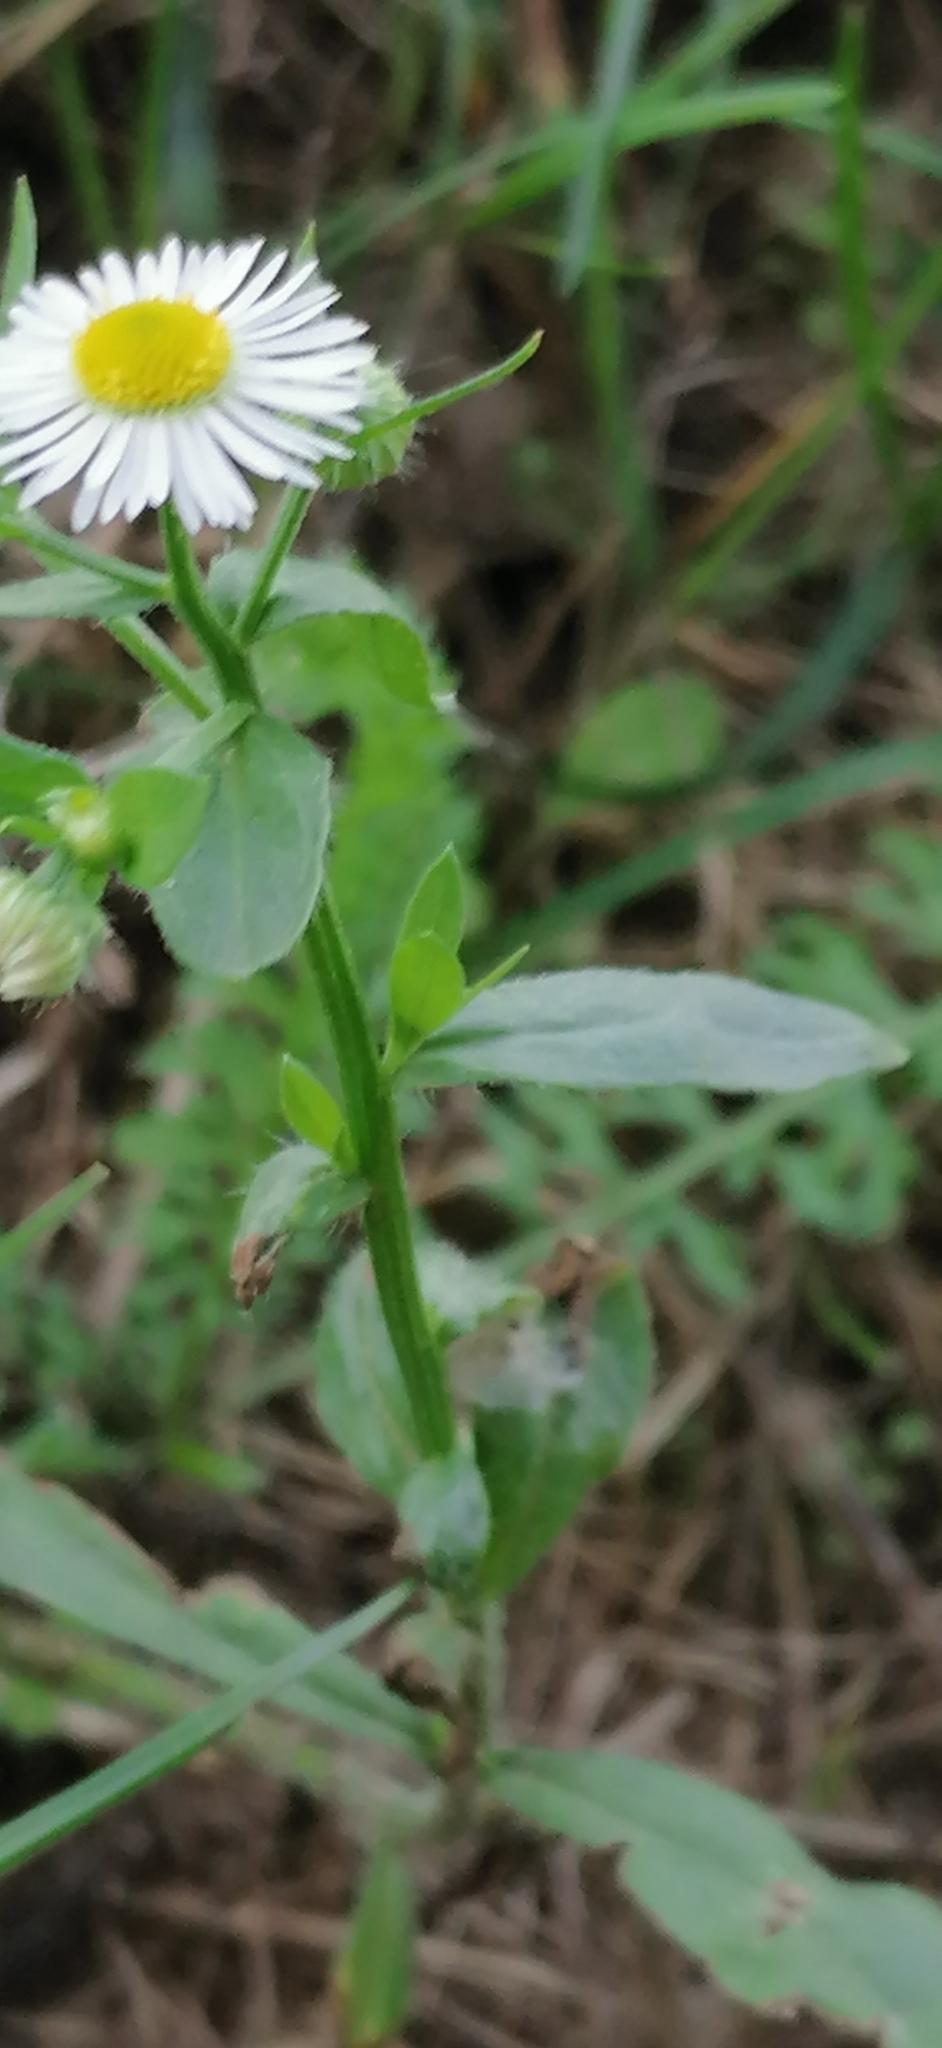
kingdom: Plantae
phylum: Tracheophyta
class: Magnoliopsida
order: Asterales
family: Asteraceae
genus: Erigeron
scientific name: Erigeron annuus
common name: Tall fleabane
